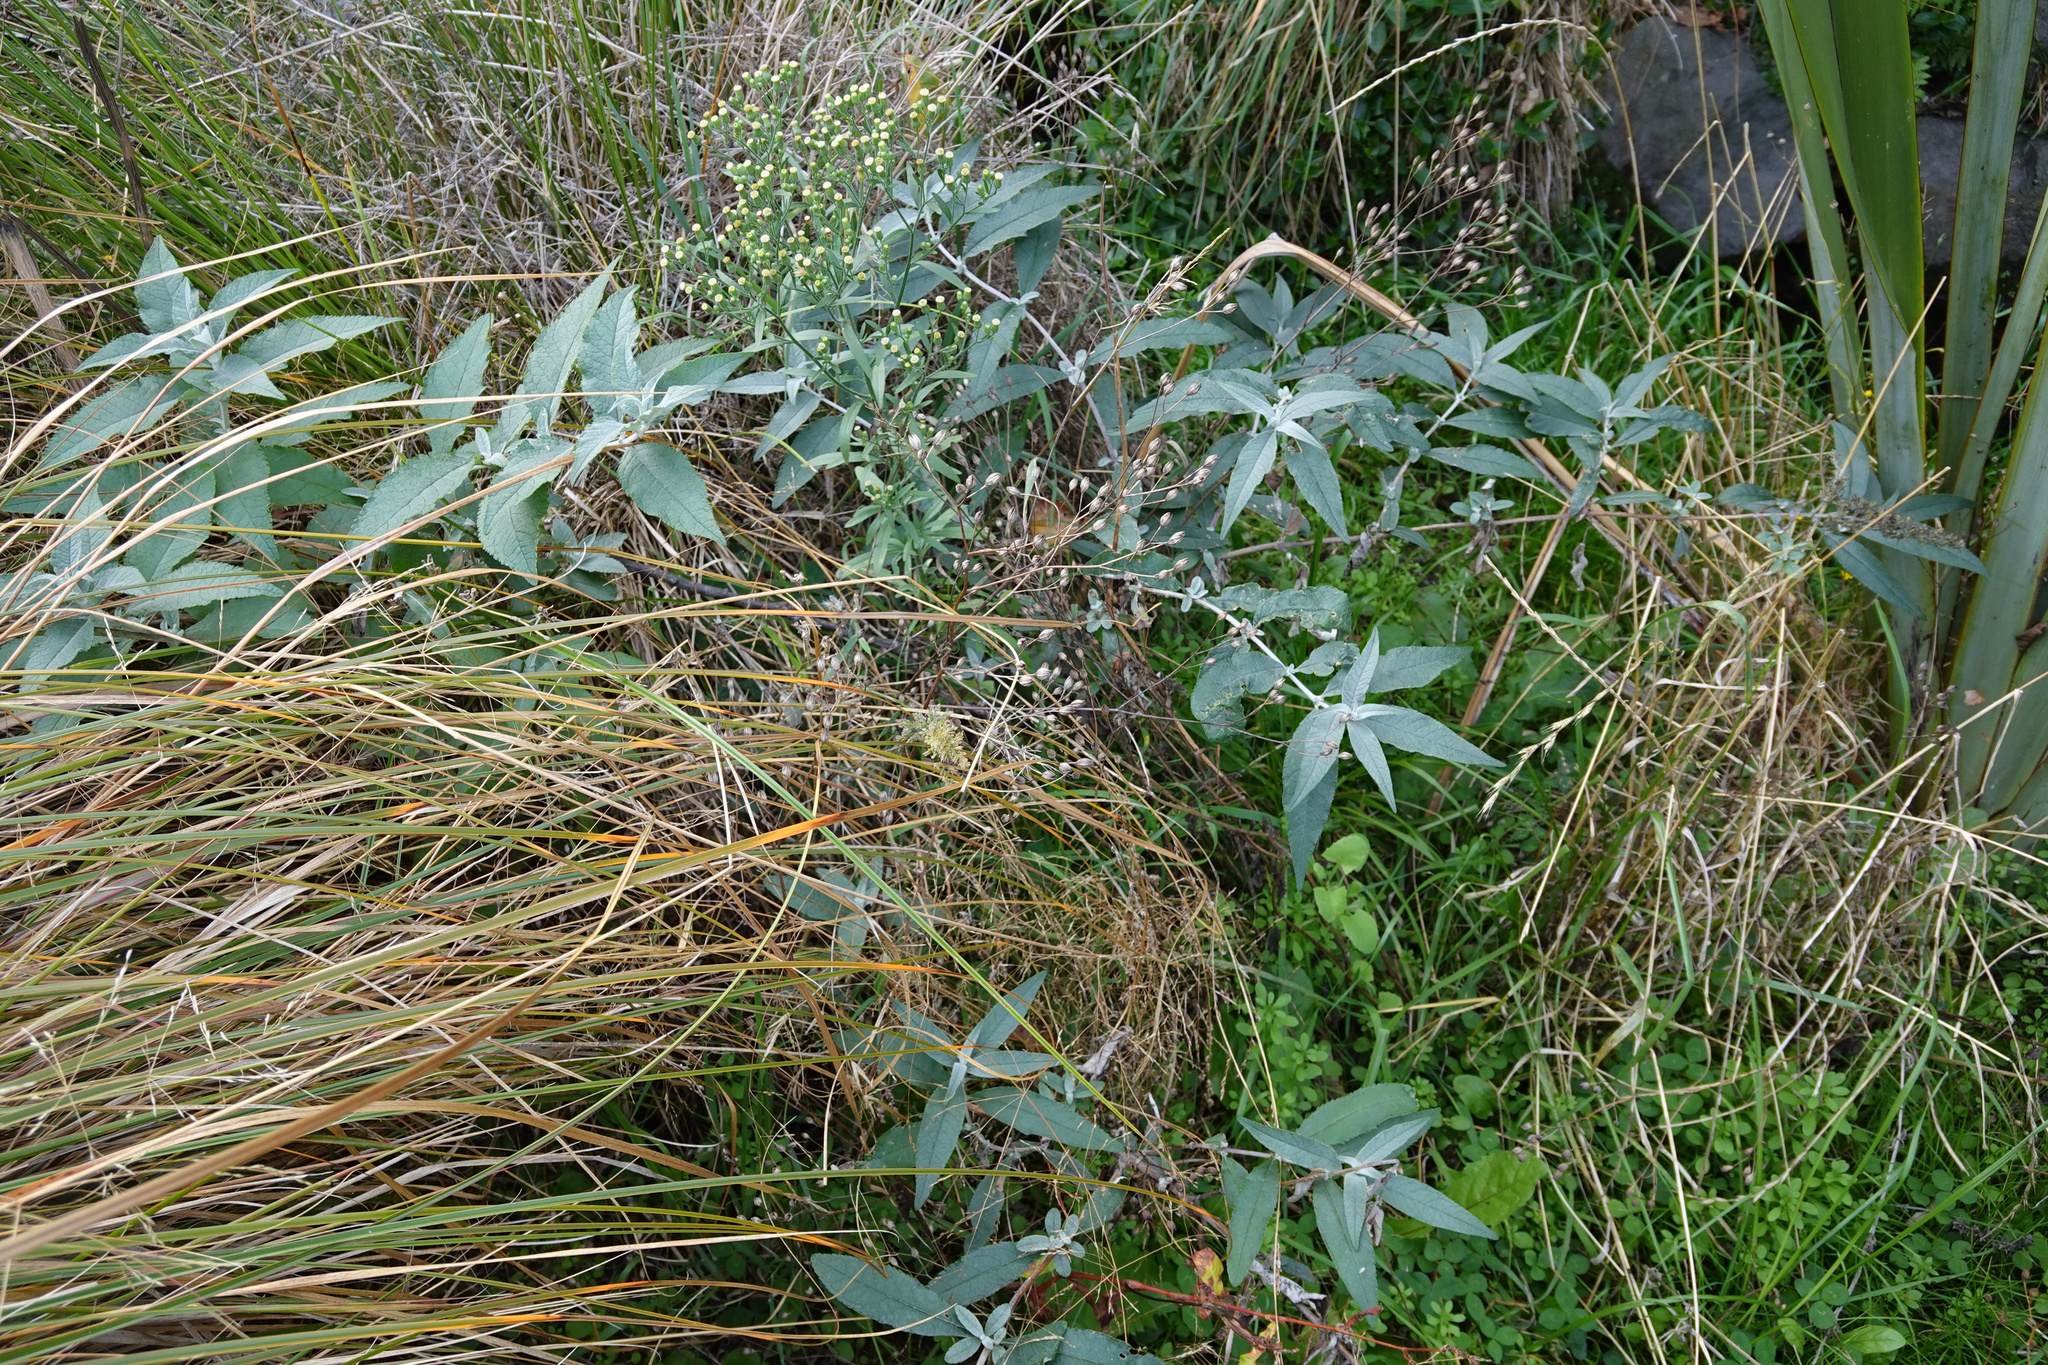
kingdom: Plantae
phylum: Tracheophyta
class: Magnoliopsida
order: Lamiales
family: Scrophulariaceae
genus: Buddleja
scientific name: Buddleja davidii
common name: Butterfly-bush
